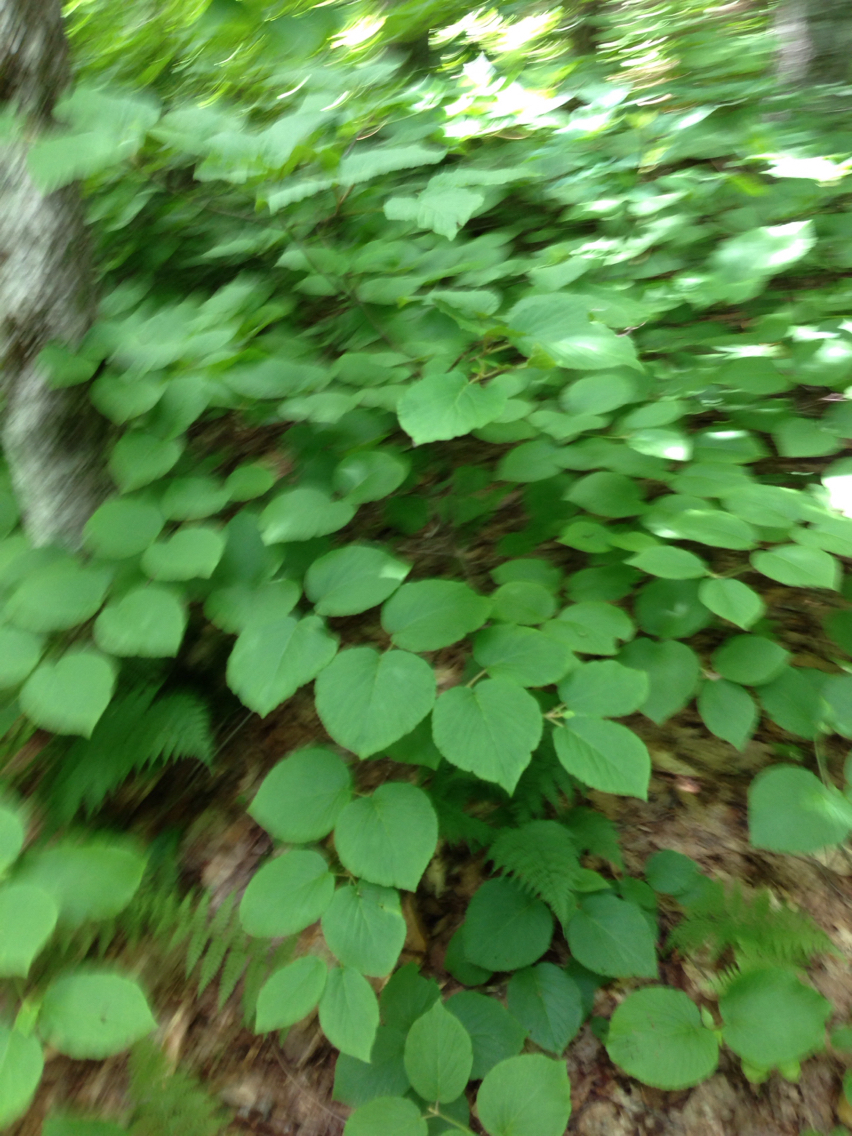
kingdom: Plantae
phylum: Tracheophyta
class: Magnoliopsida
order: Dipsacales
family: Viburnaceae
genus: Viburnum
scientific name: Viburnum lantanoides
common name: Hobblebush
